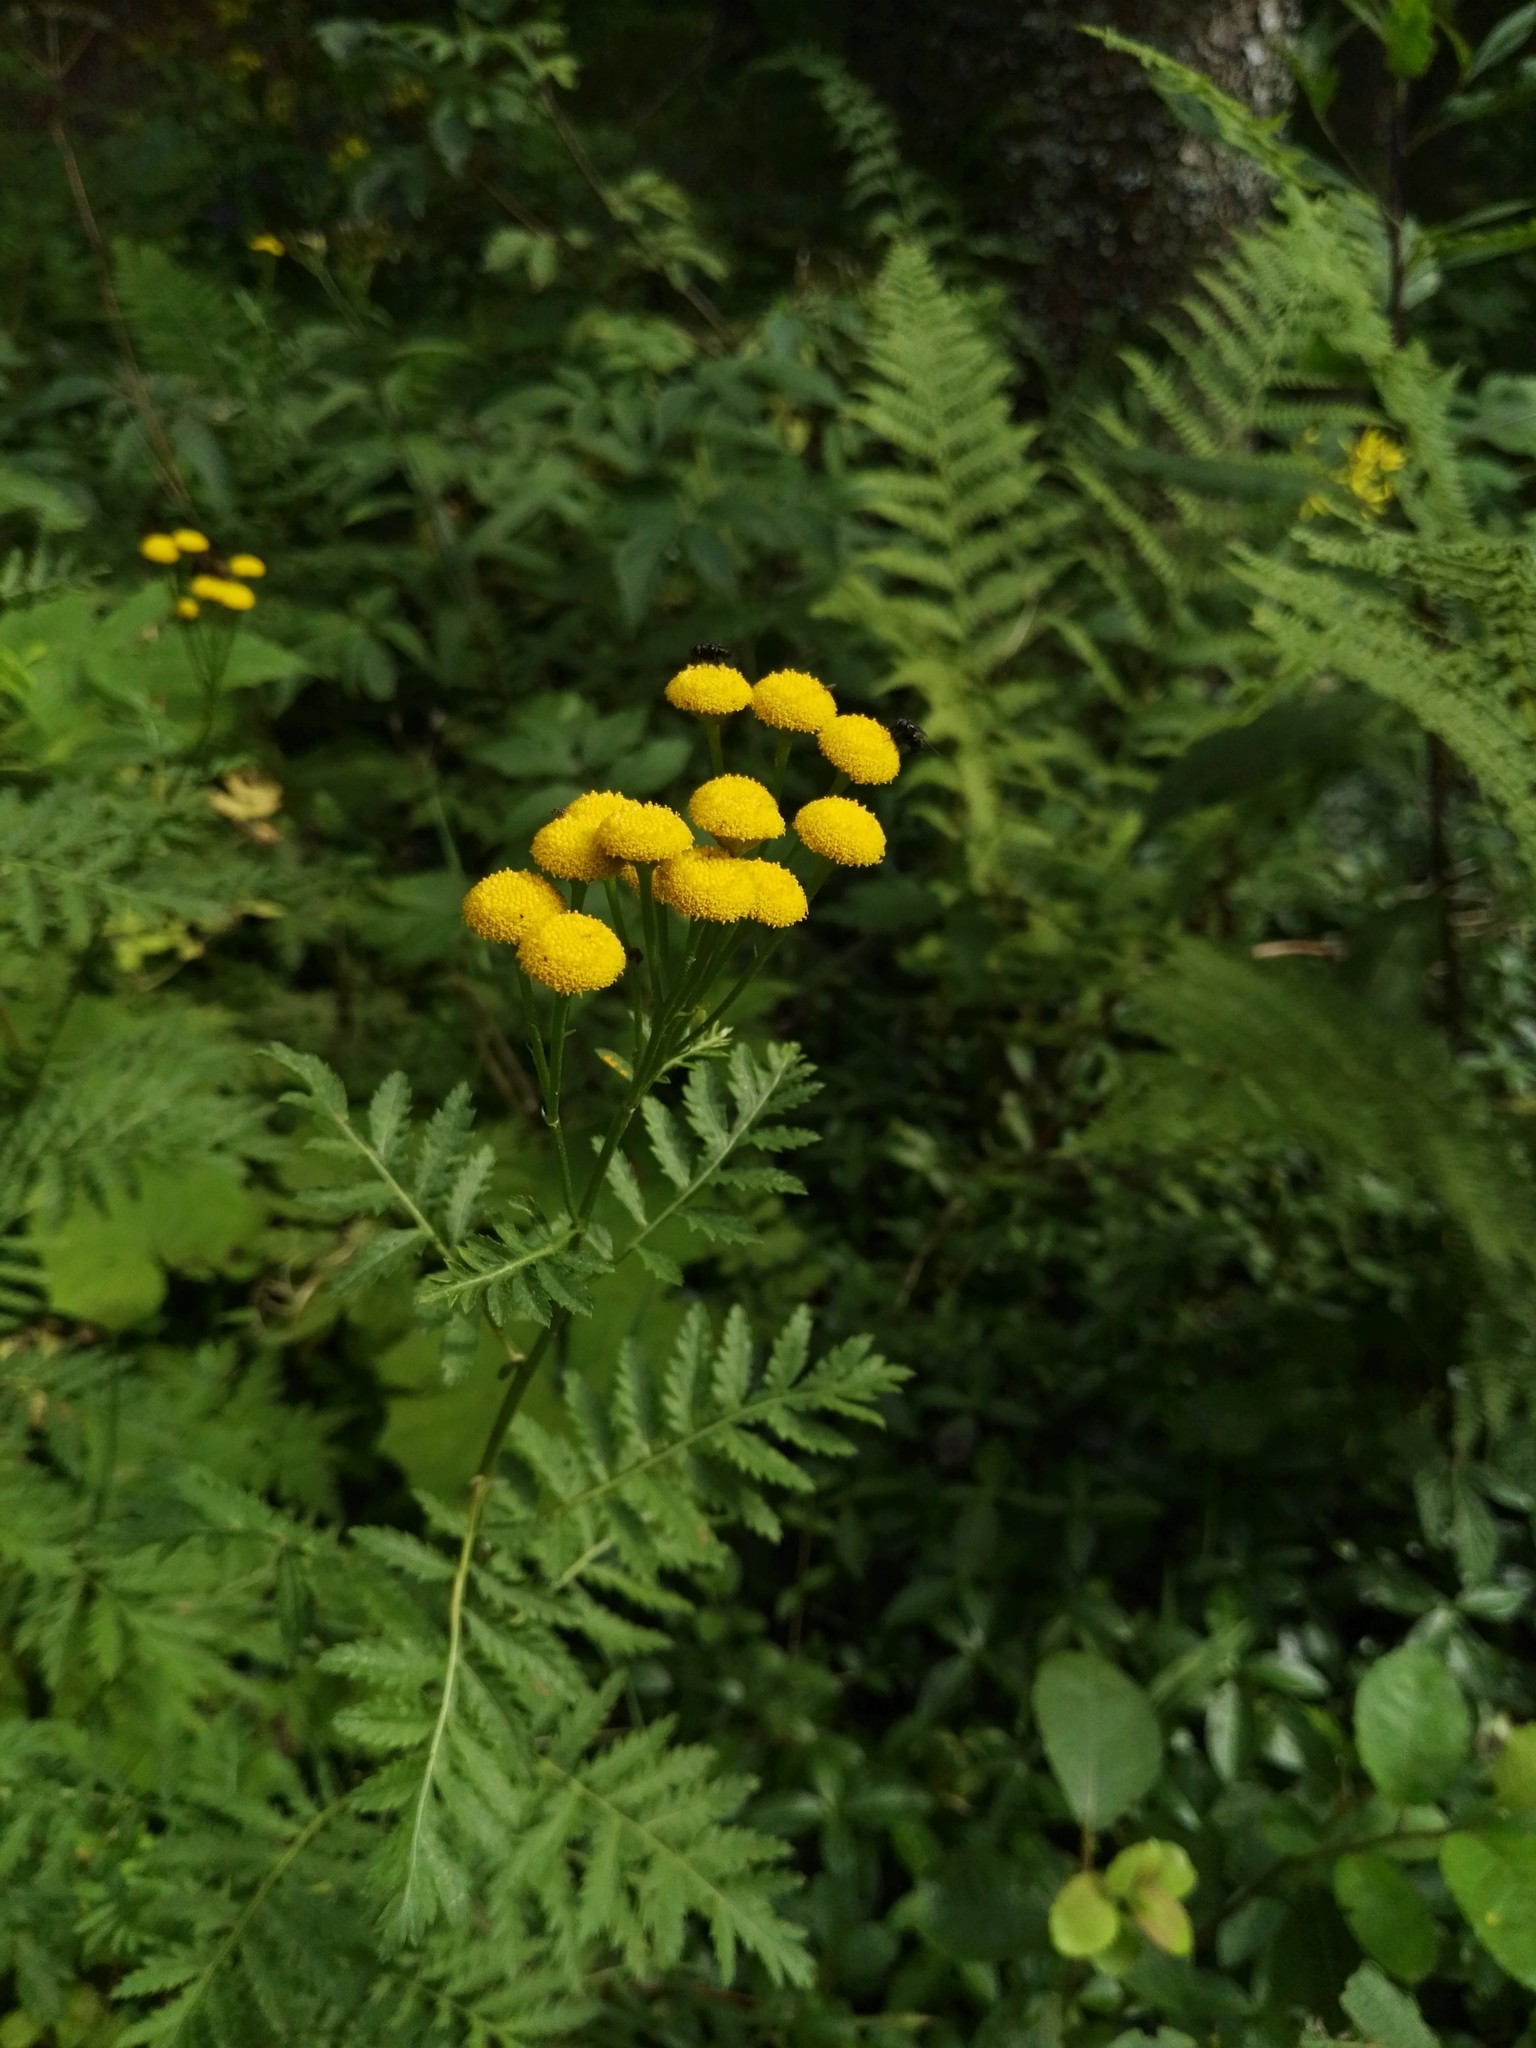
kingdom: Plantae
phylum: Tracheophyta
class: Magnoliopsida
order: Asterales
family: Asteraceae
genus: Tanacetum
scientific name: Tanacetum vulgare
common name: Common tansy
